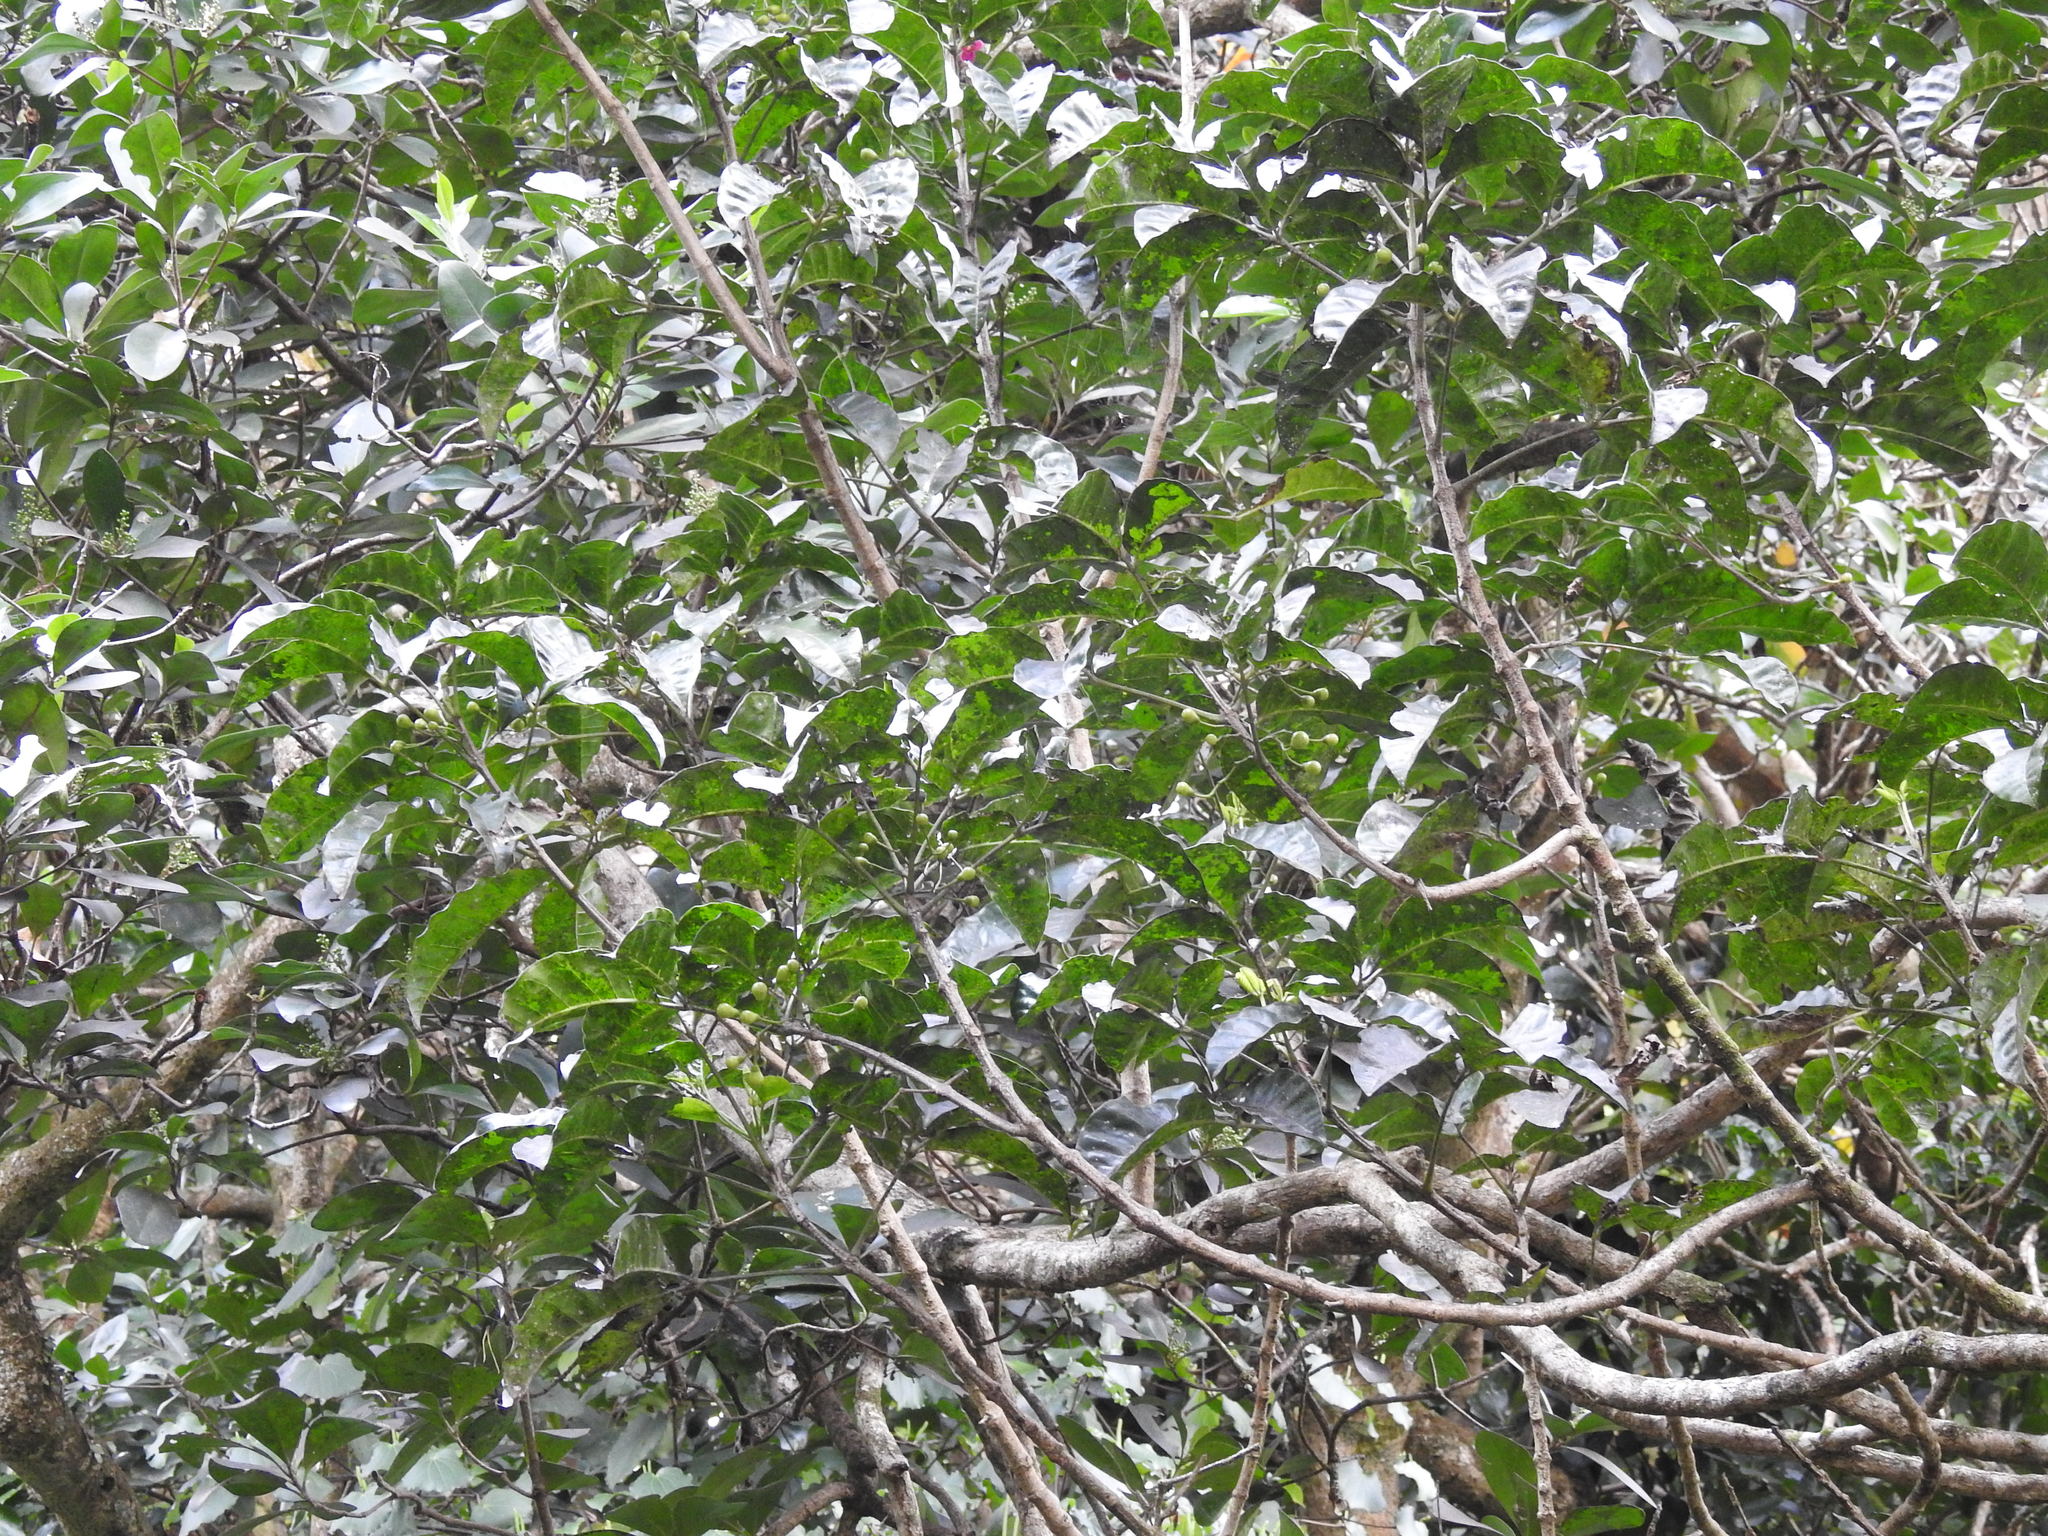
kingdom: Plantae
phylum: Tracheophyta
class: Magnoliopsida
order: Lamiales
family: Lamiaceae
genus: Vitex
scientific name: Vitex lucens
